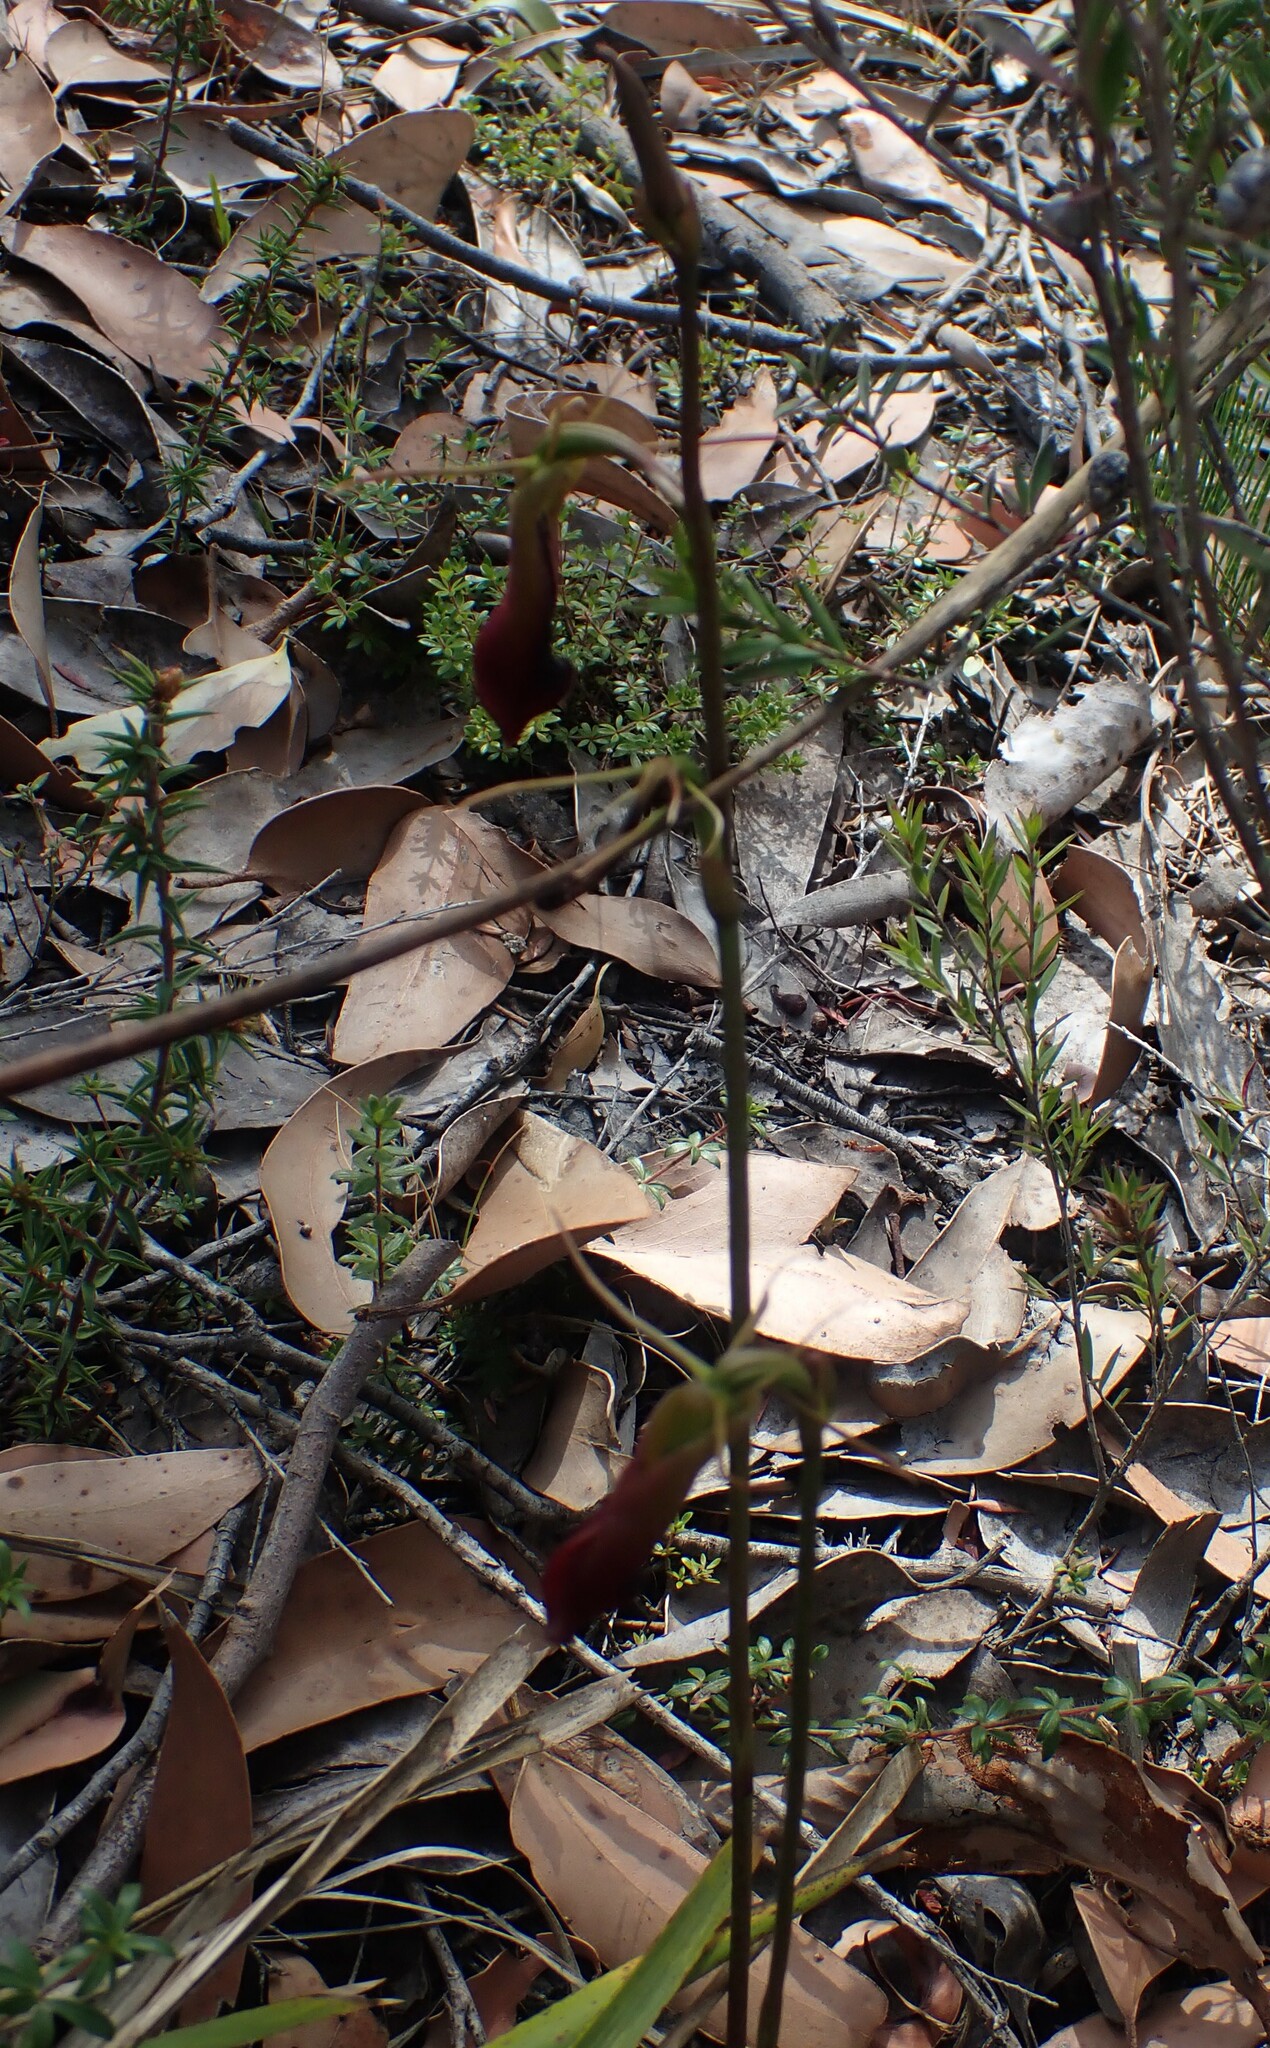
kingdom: Plantae
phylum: Tracheophyta
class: Liliopsida
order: Asparagales
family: Orchidaceae
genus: Cryptostylis
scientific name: Cryptostylis subulata
